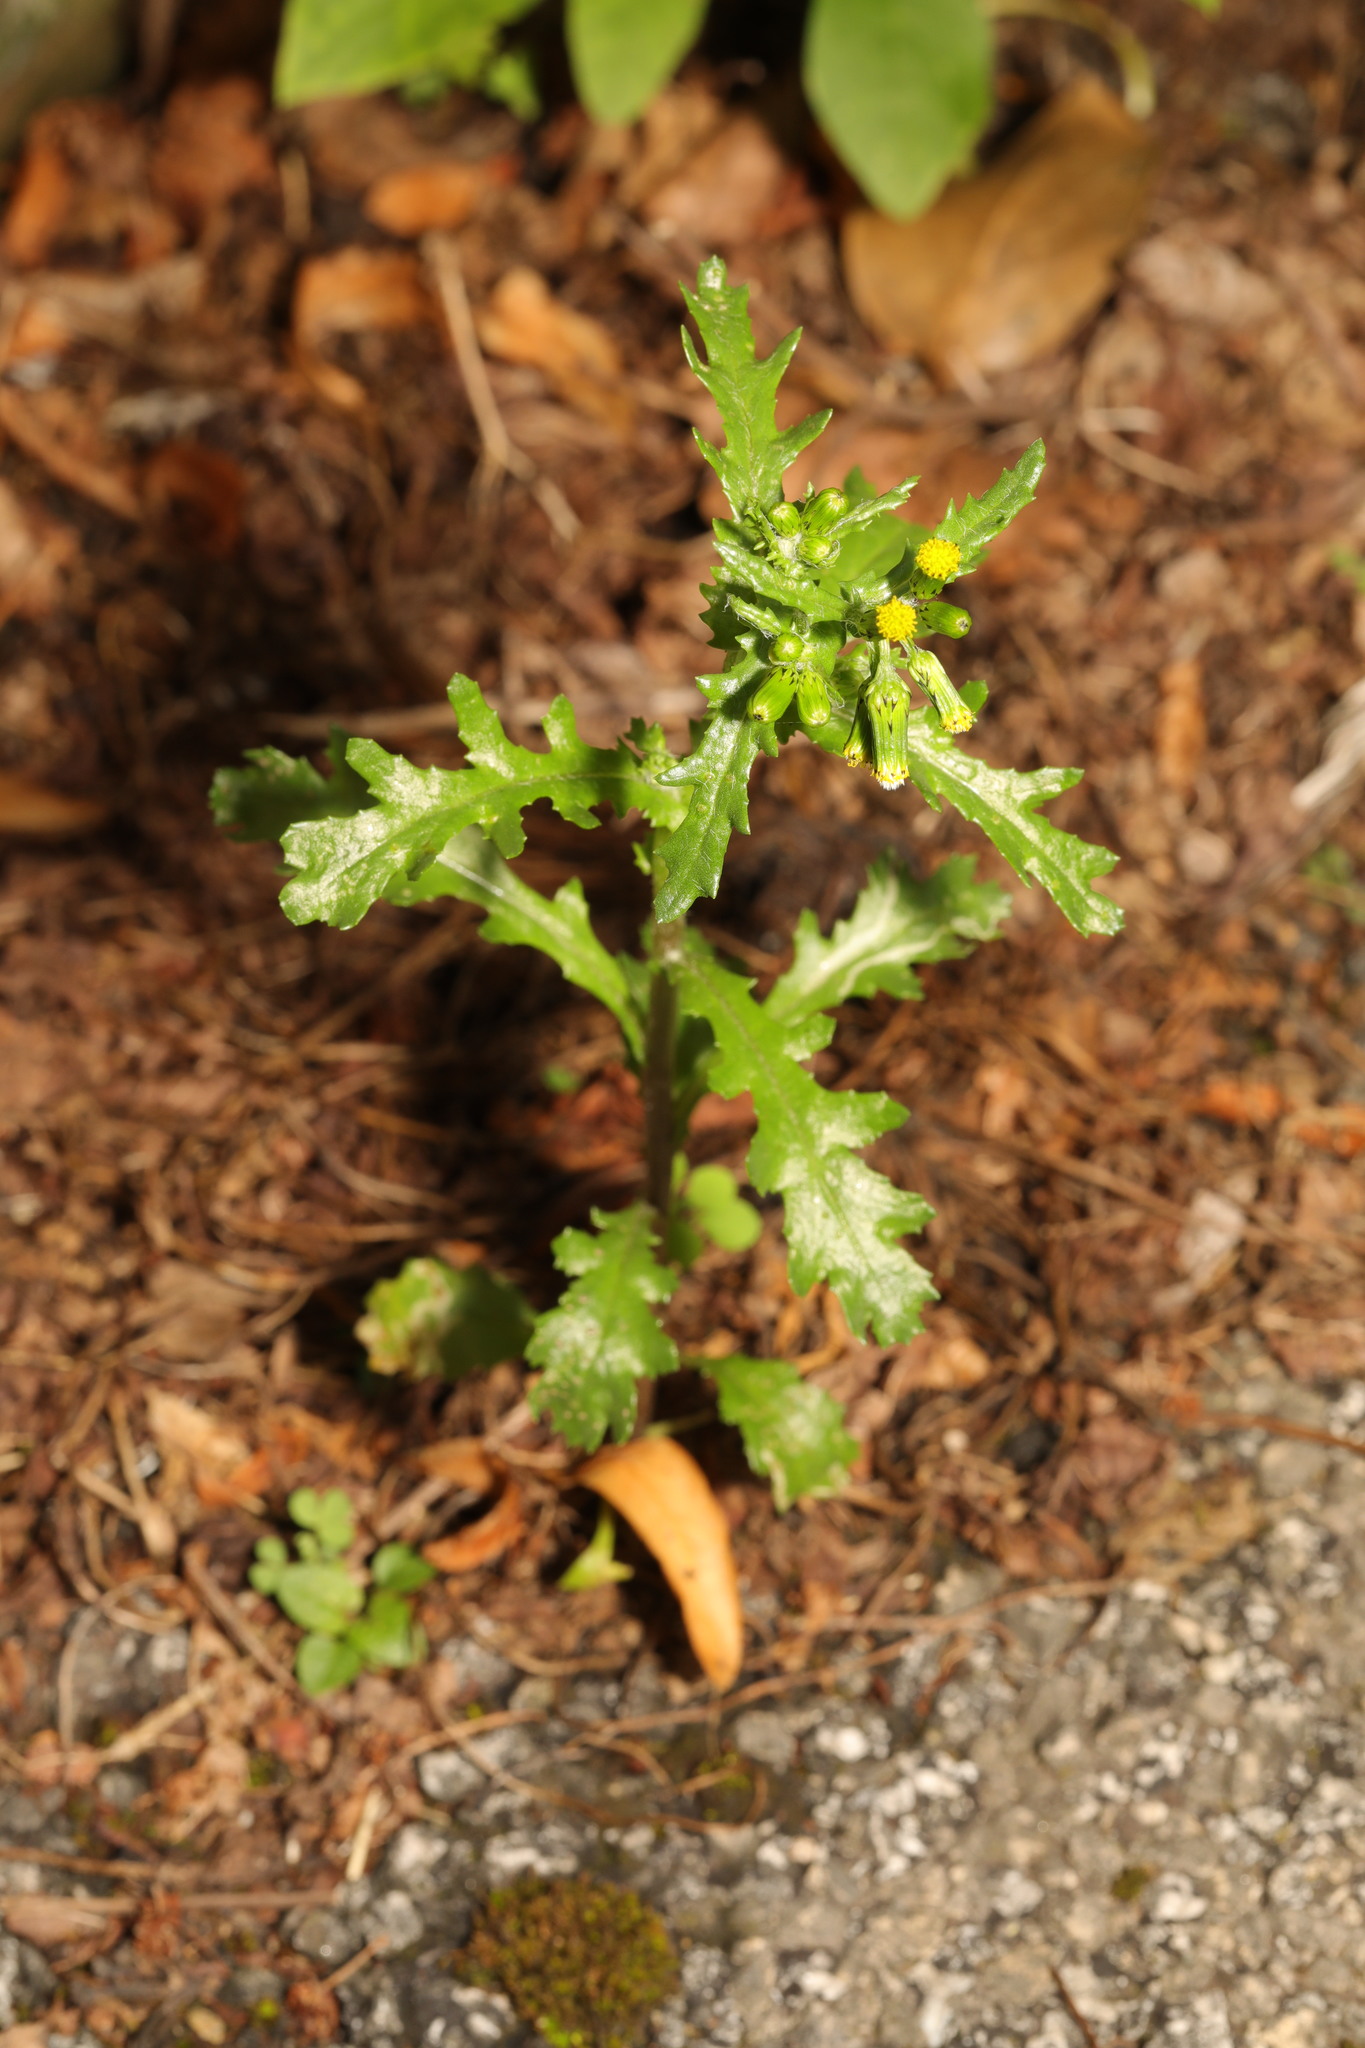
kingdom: Plantae
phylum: Tracheophyta
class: Magnoliopsida
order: Asterales
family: Asteraceae
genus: Senecio
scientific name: Senecio vulgaris
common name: Old-man-in-the-spring
